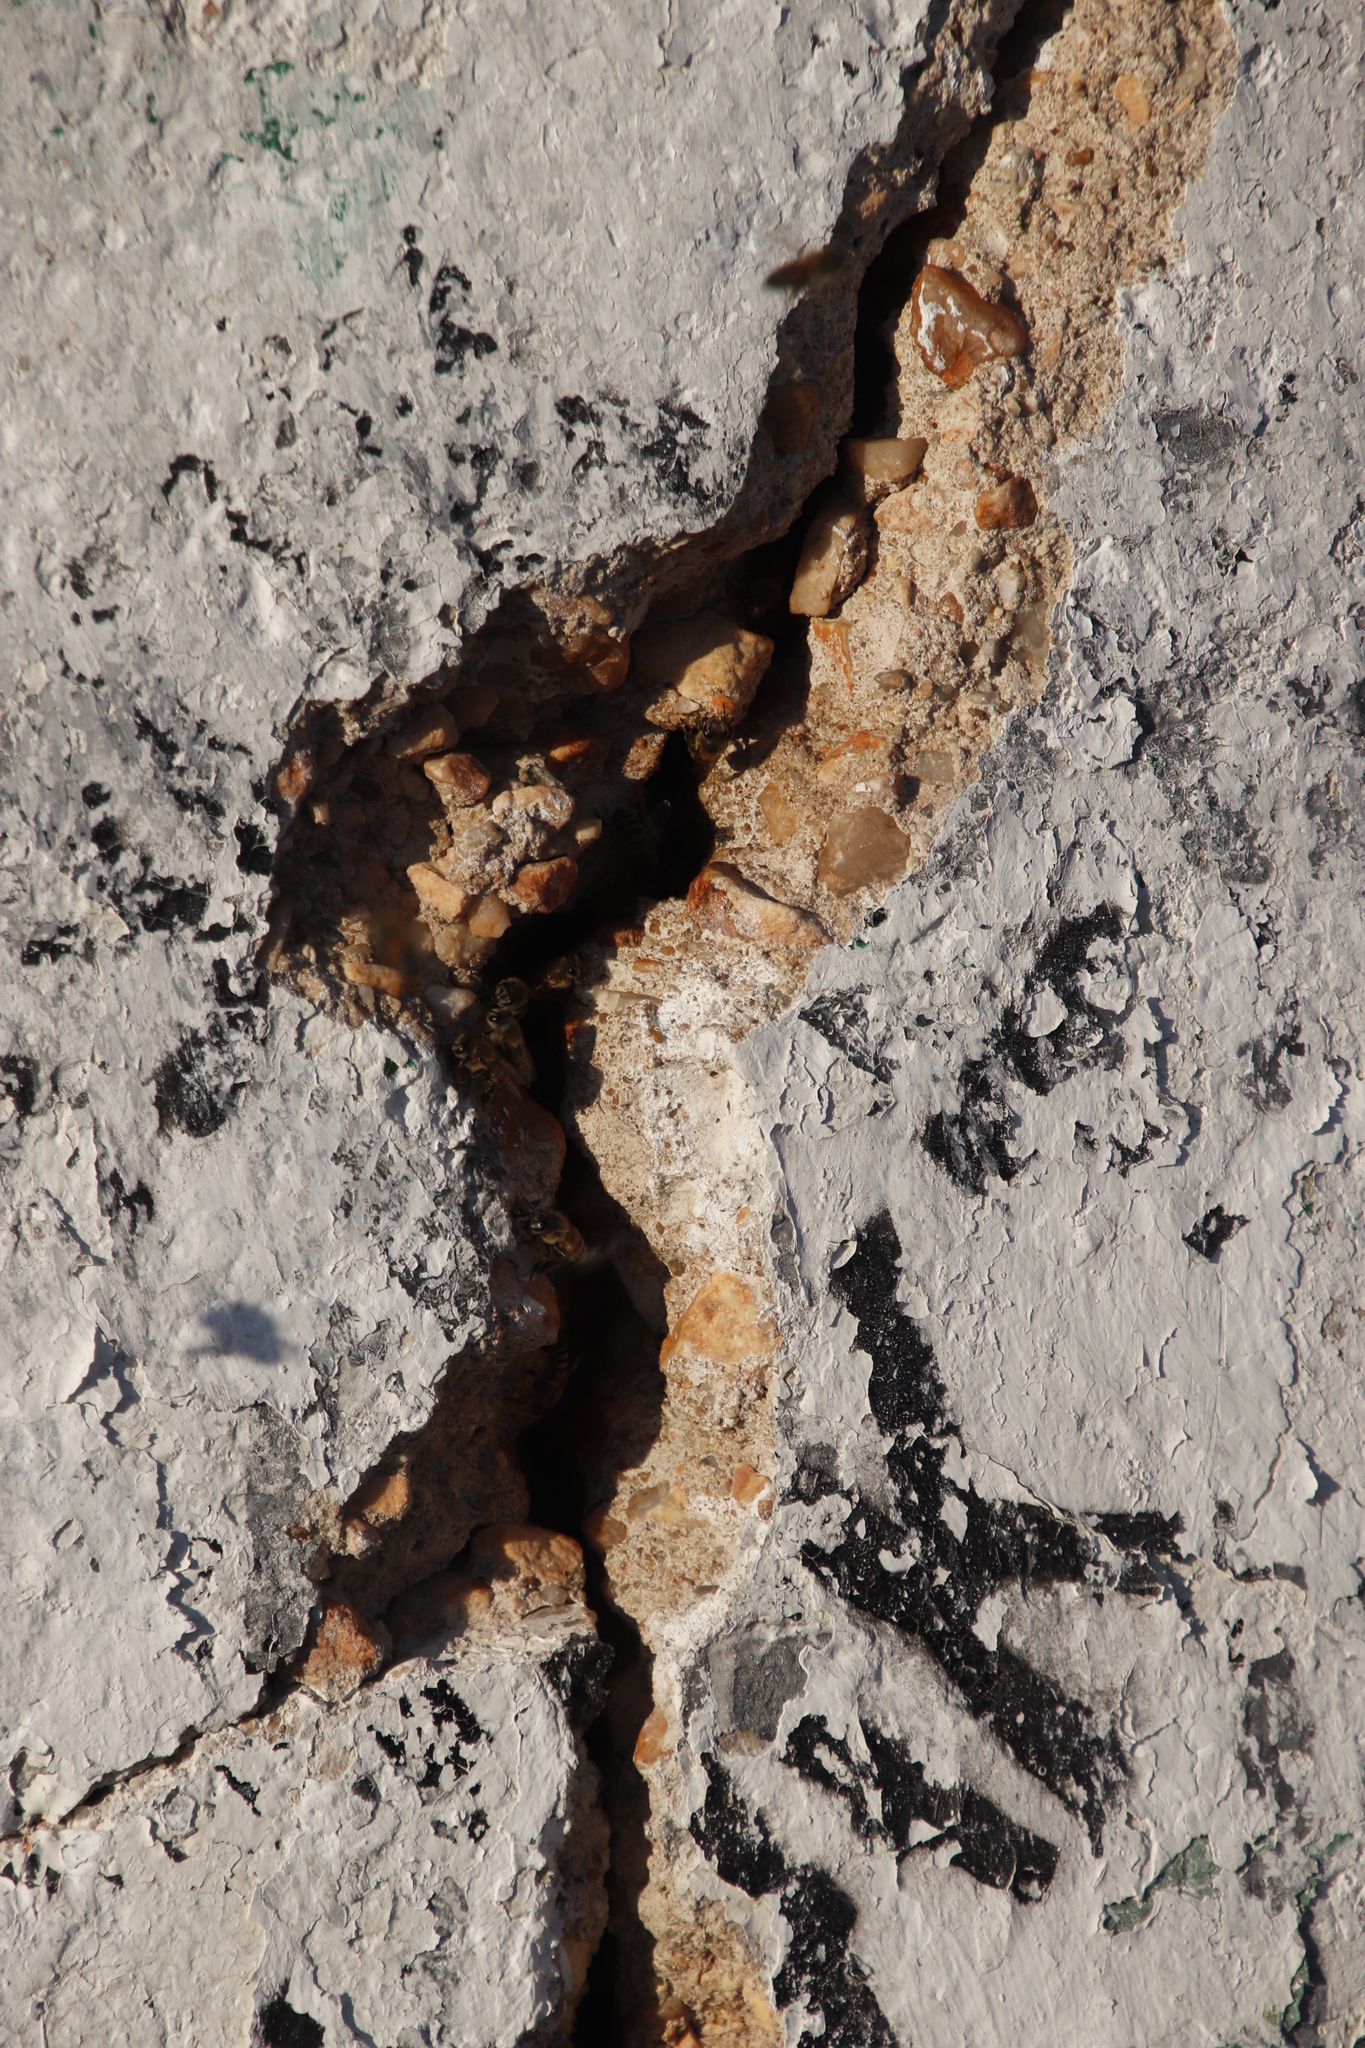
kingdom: Animalia
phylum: Arthropoda
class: Insecta
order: Hymenoptera
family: Apidae
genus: Apis
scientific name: Apis mellifera
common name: Honey bee
